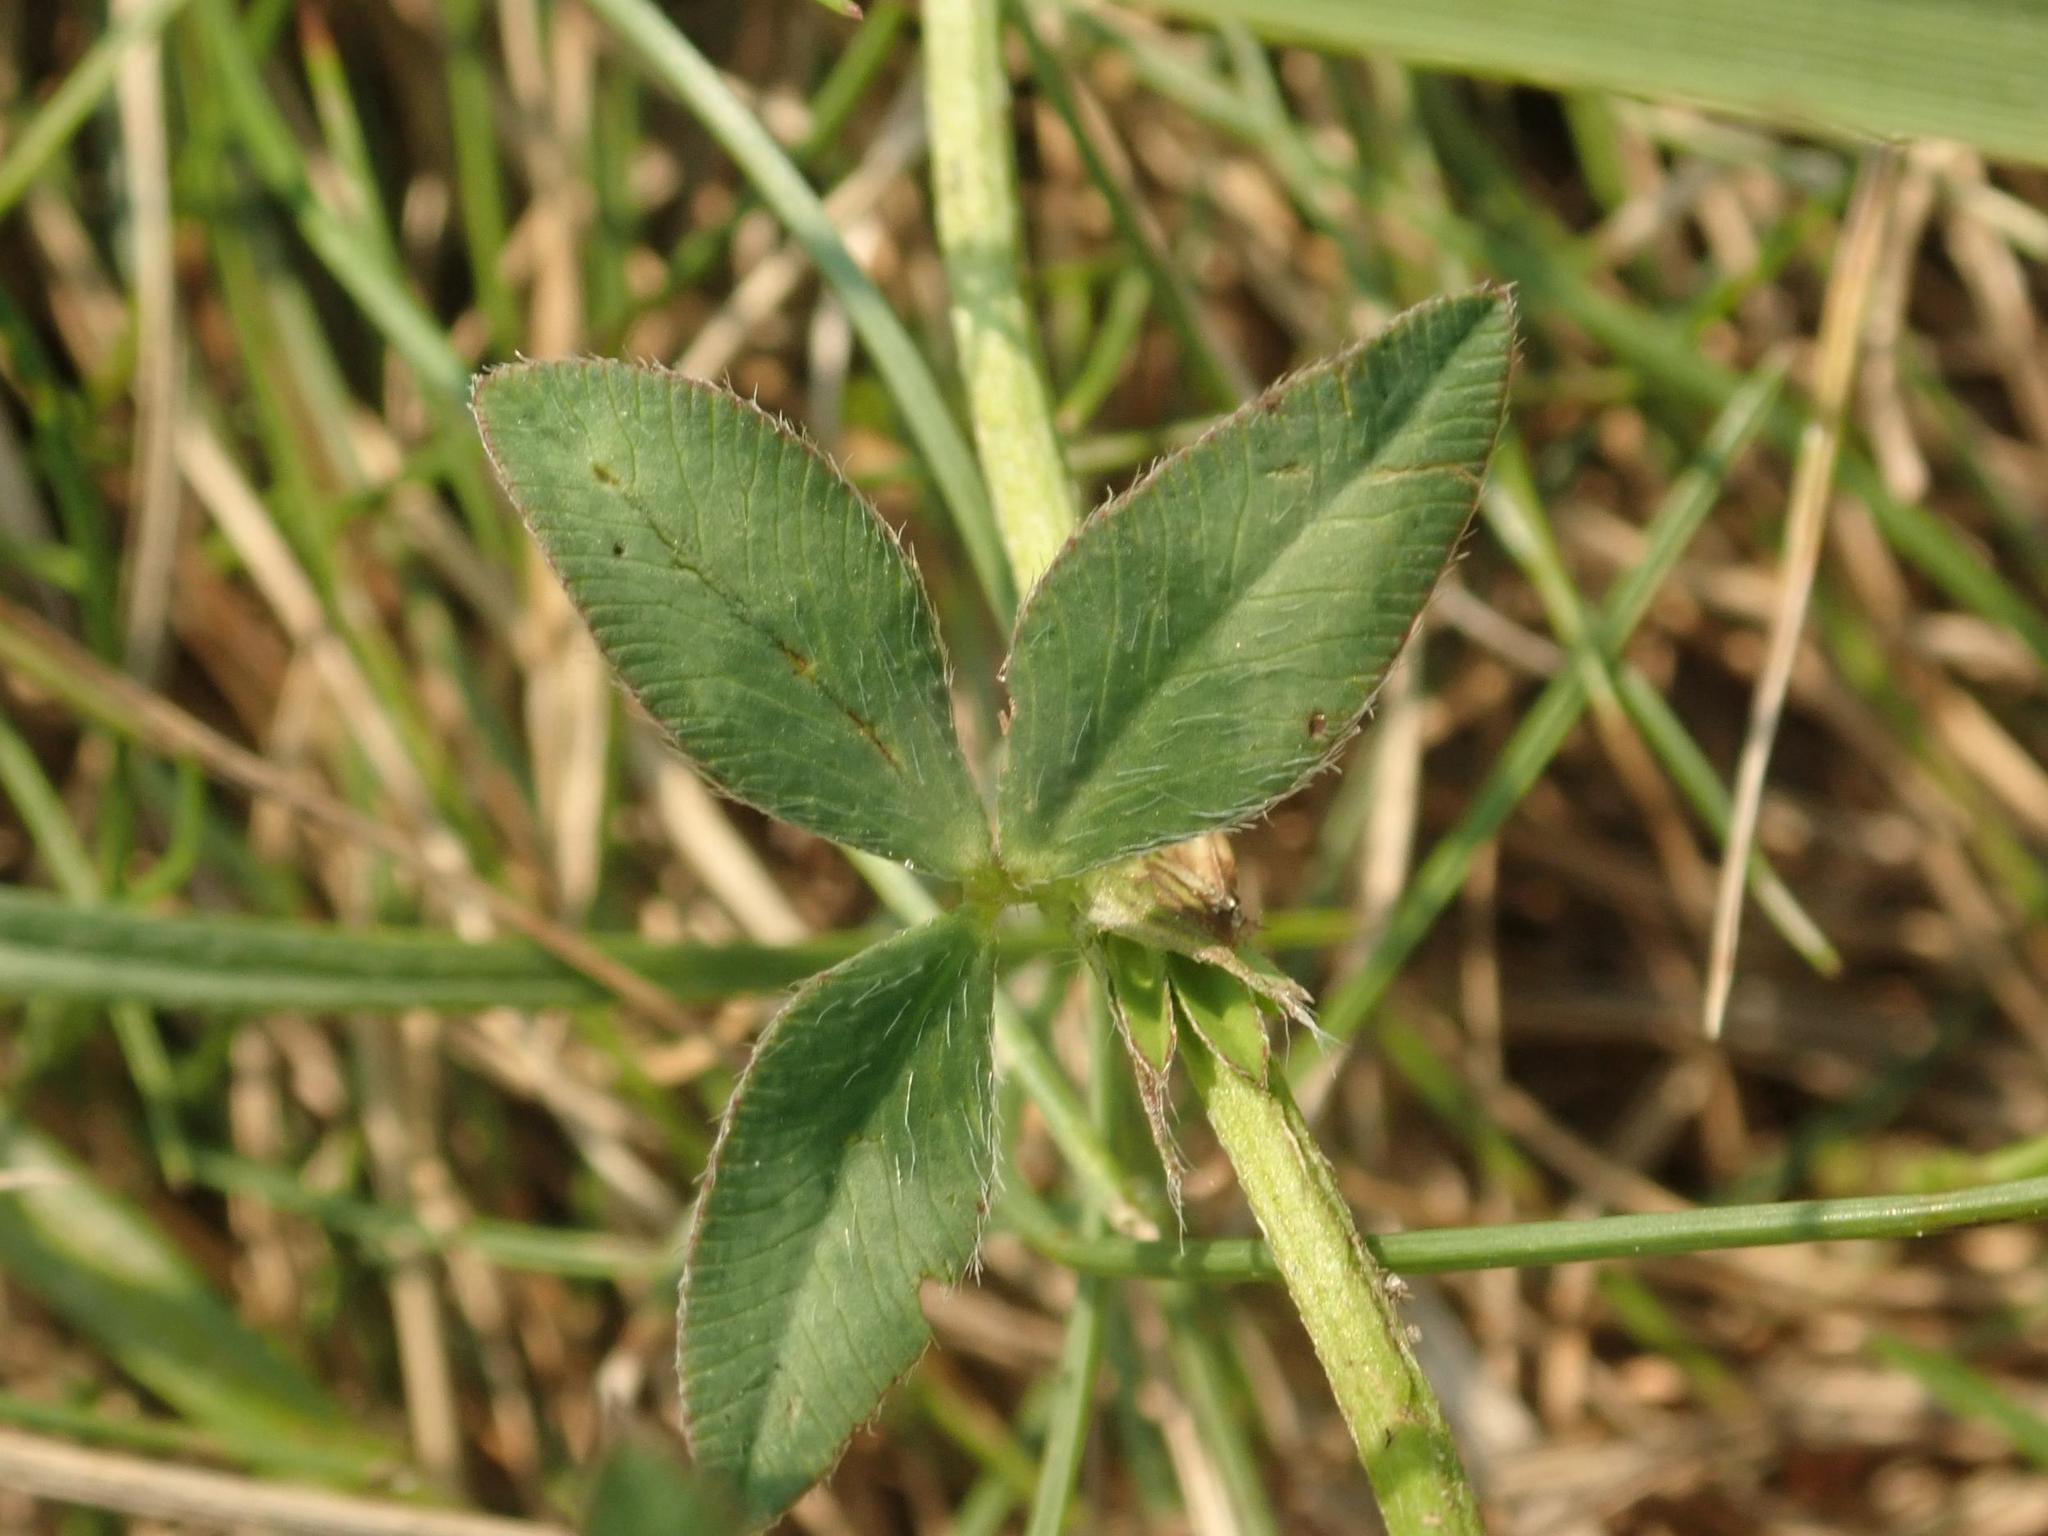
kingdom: Plantae
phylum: Tracheophyta
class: Magnoliopsida
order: Fabales
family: Fabaceae
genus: Trifolium
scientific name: Trifolium pratense
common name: Red clover
